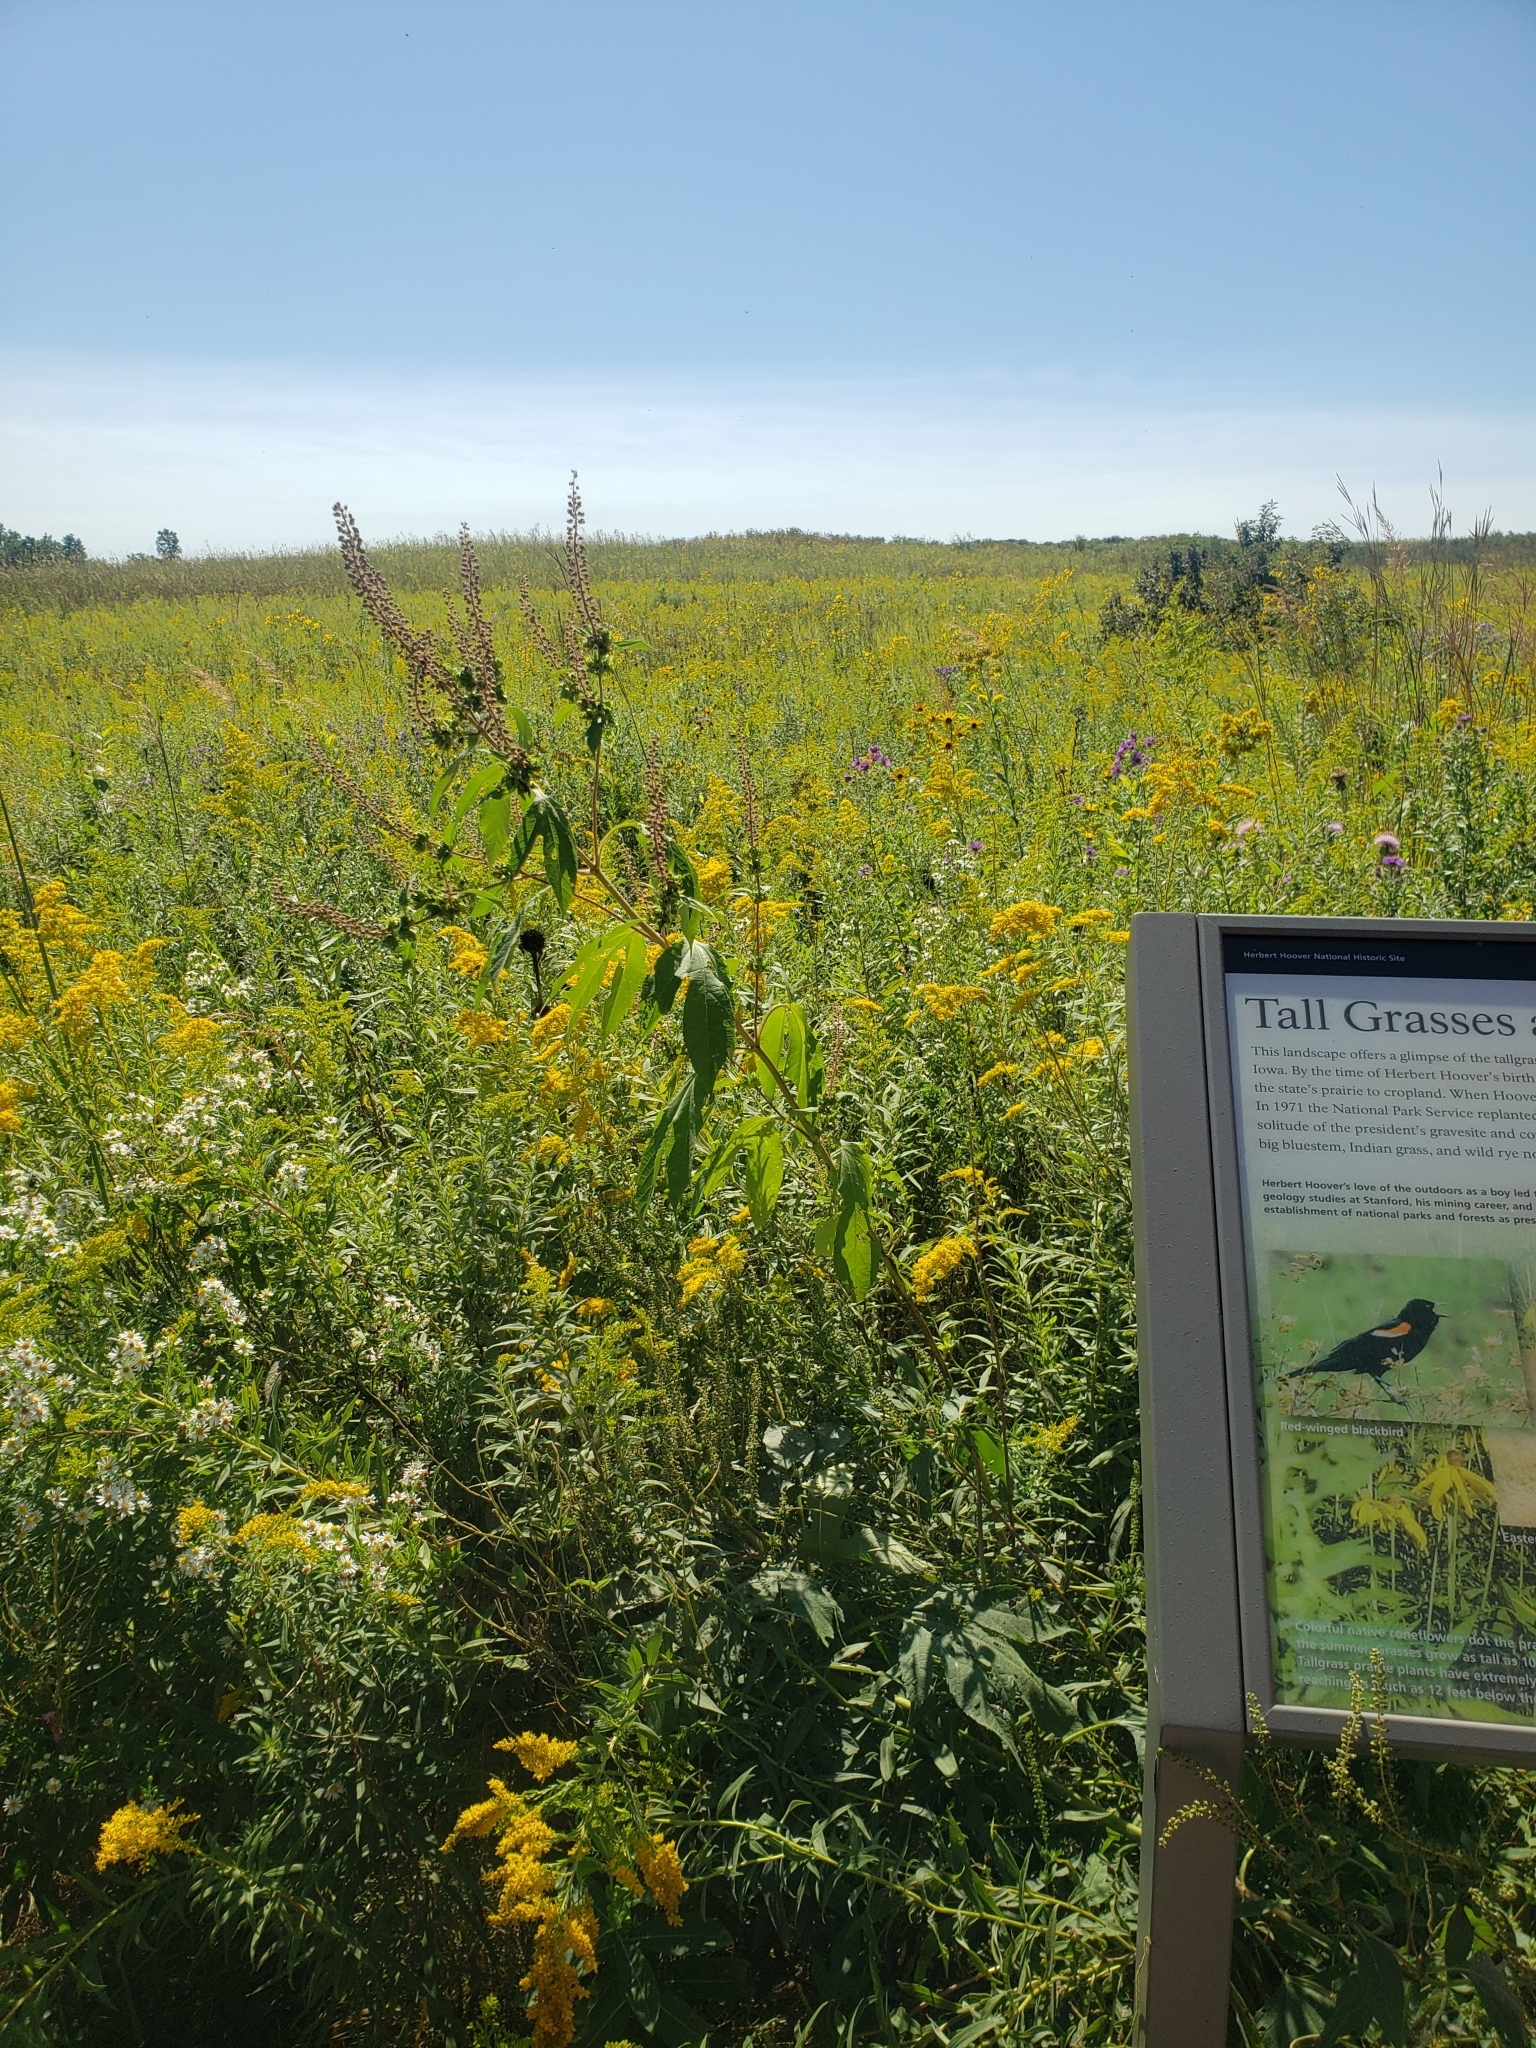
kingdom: Plantae
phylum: Tracheophyta
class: Magnoliopsida
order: Asterales
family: Asteraceae
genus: Ambrosia
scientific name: Ambrosia trifida
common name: Giant ragweed
